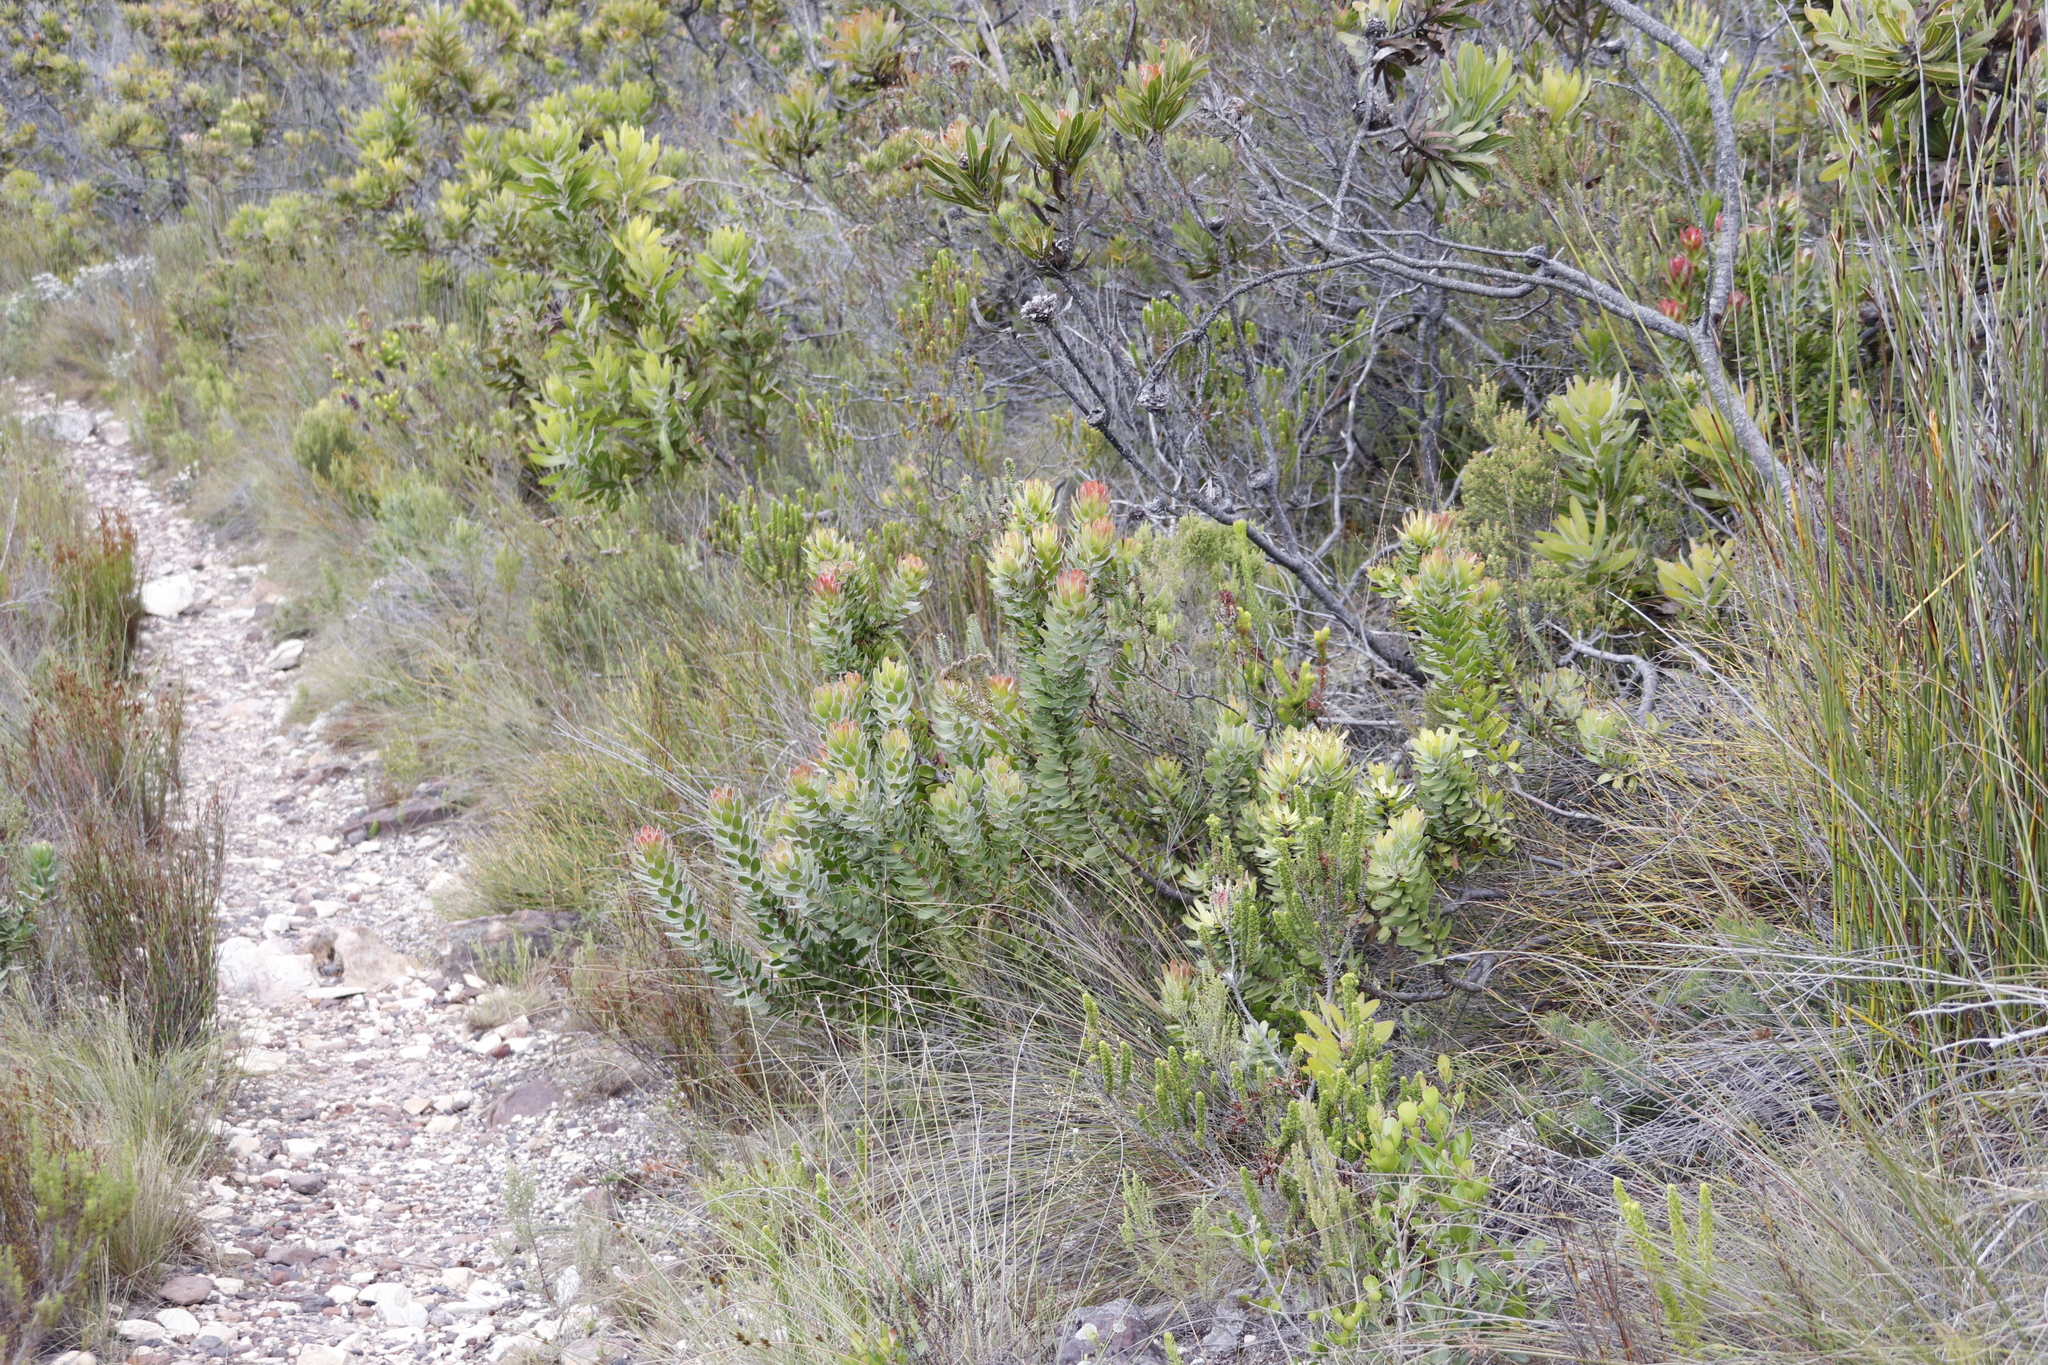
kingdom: Plantae
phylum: Tracheophyta
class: Magnoliopsida
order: Proteales
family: Proteaceae
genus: Mimetes
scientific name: Mimetes cucullatus
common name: Common pagoda
